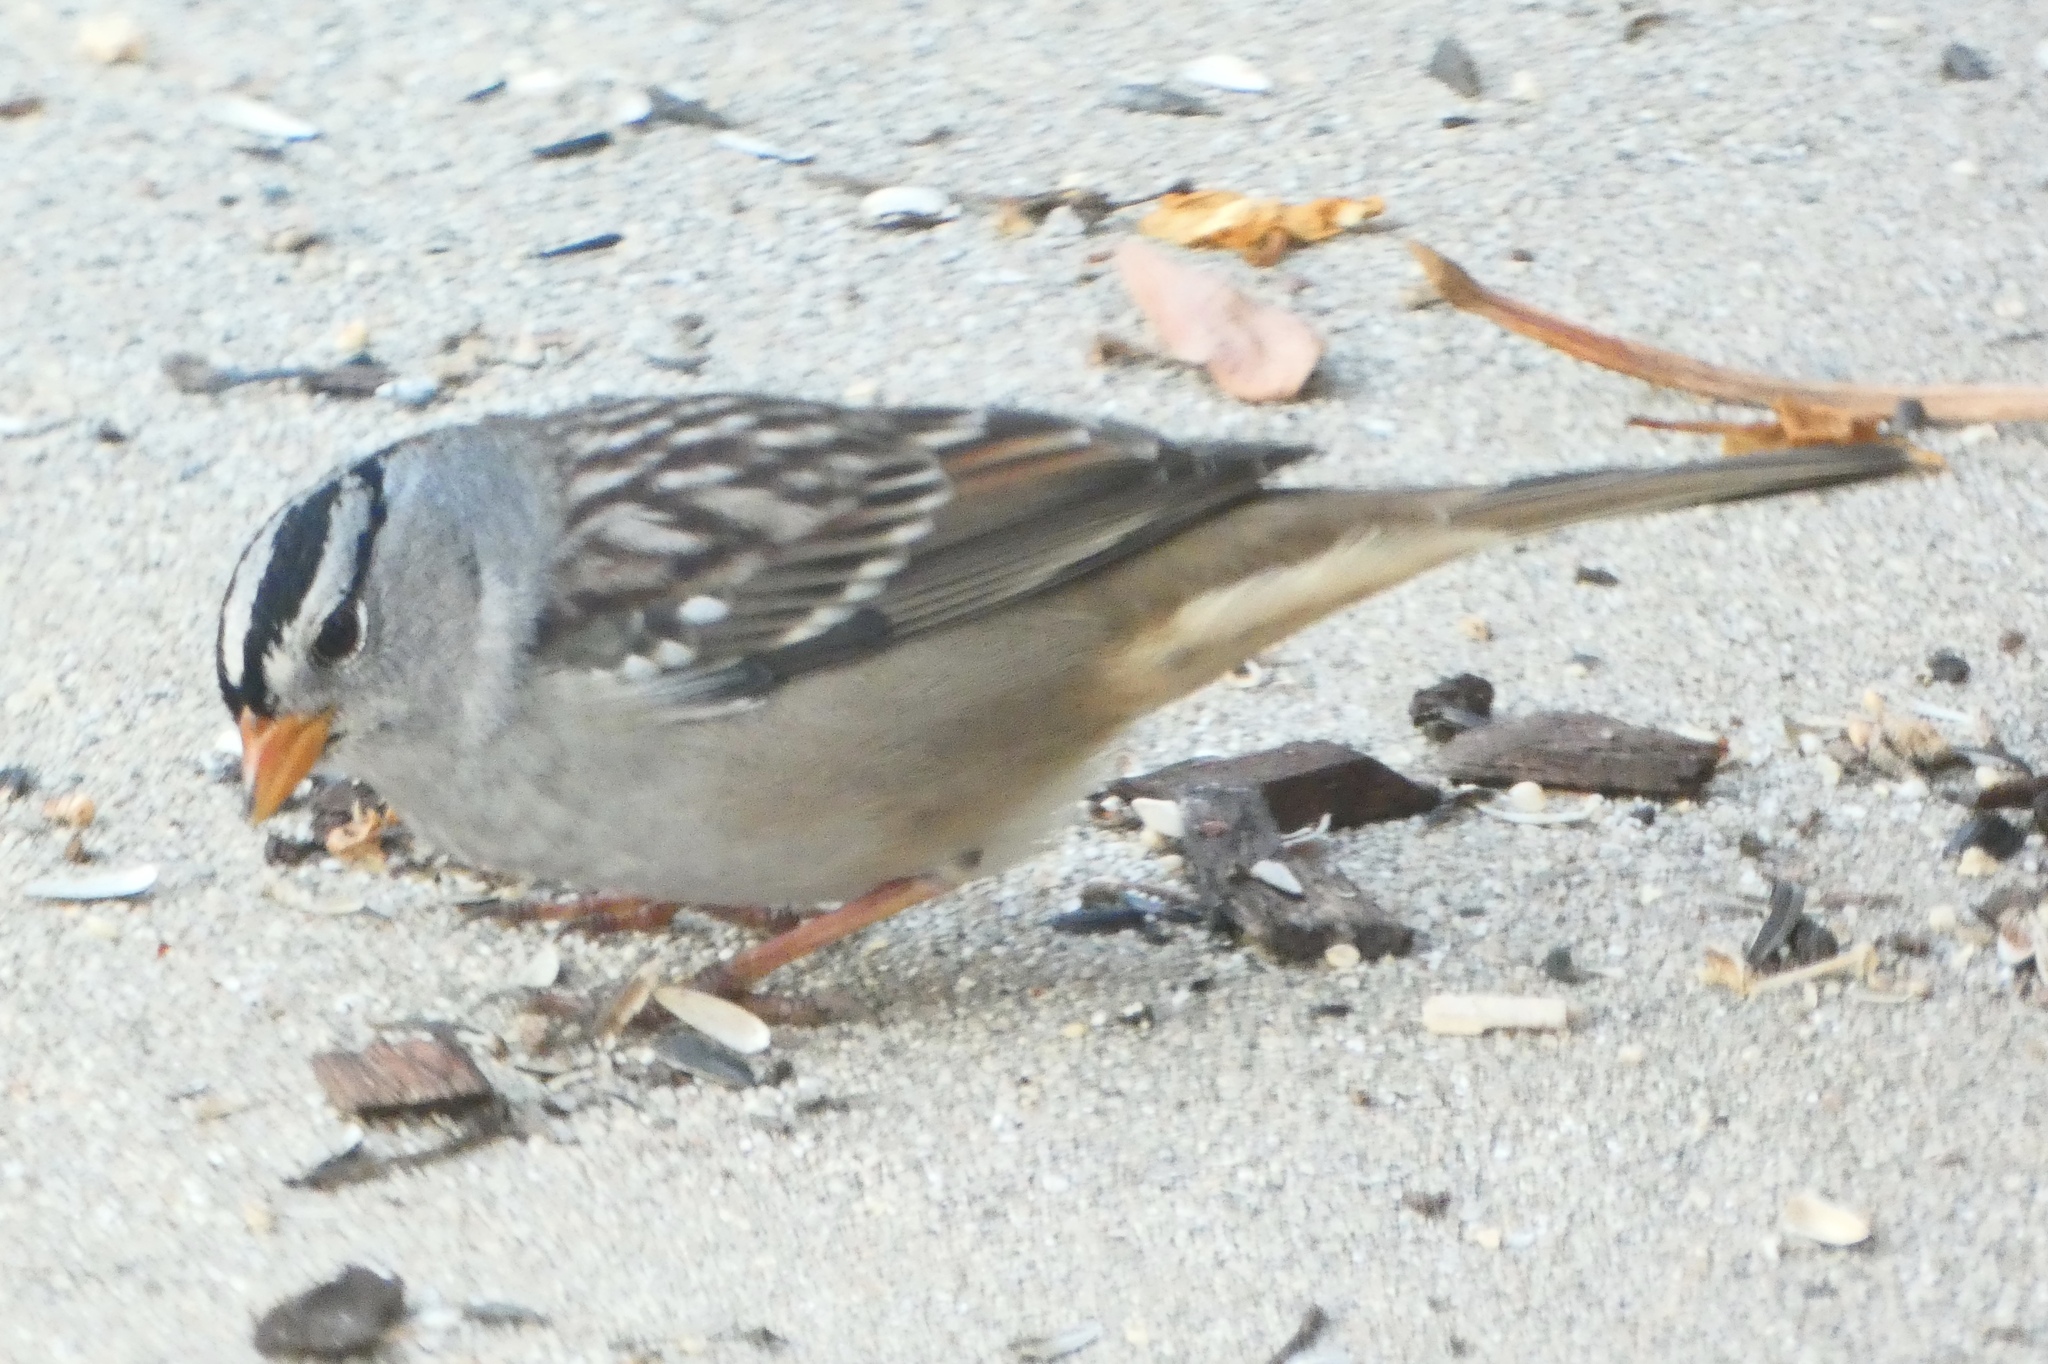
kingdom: Animalia
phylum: Chordata
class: Aves
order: Passeriformes
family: Passerellidae
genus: Zonotrichia
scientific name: Zonotrichia leucophrys
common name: White-crowned sparrow
